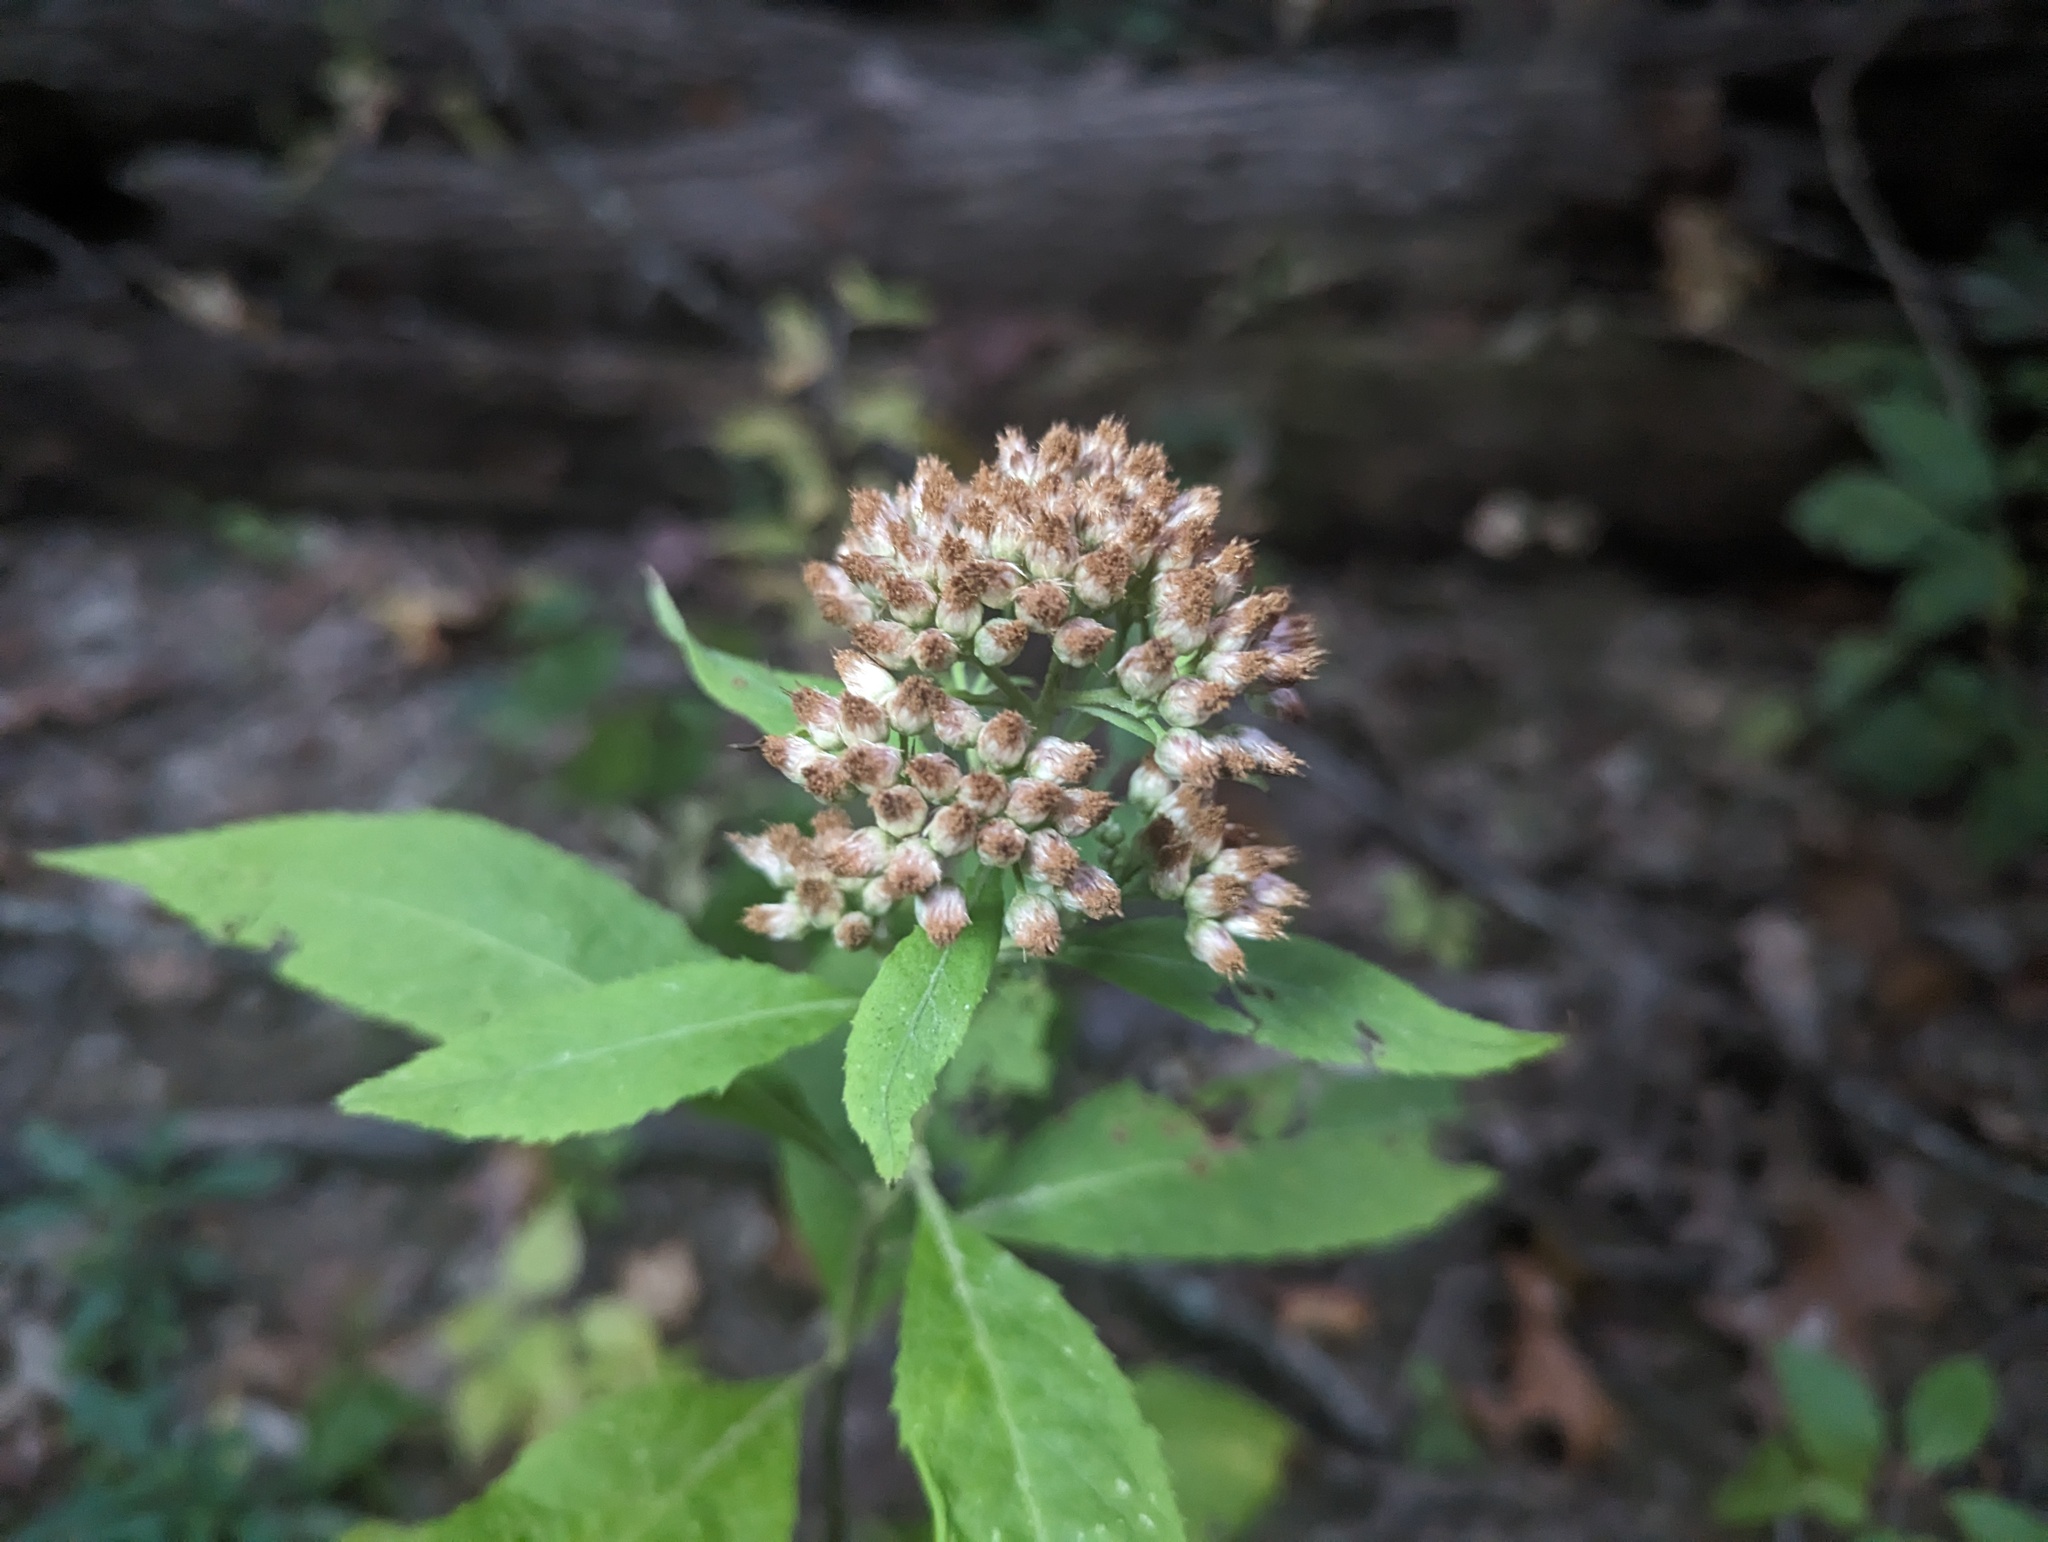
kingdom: Plantae
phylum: Tracheophyta
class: Magnoliopsida
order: Asterales
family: Asteraceae
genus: Pluchea
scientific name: Pluchea camphorata
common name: Camphor pluchea
